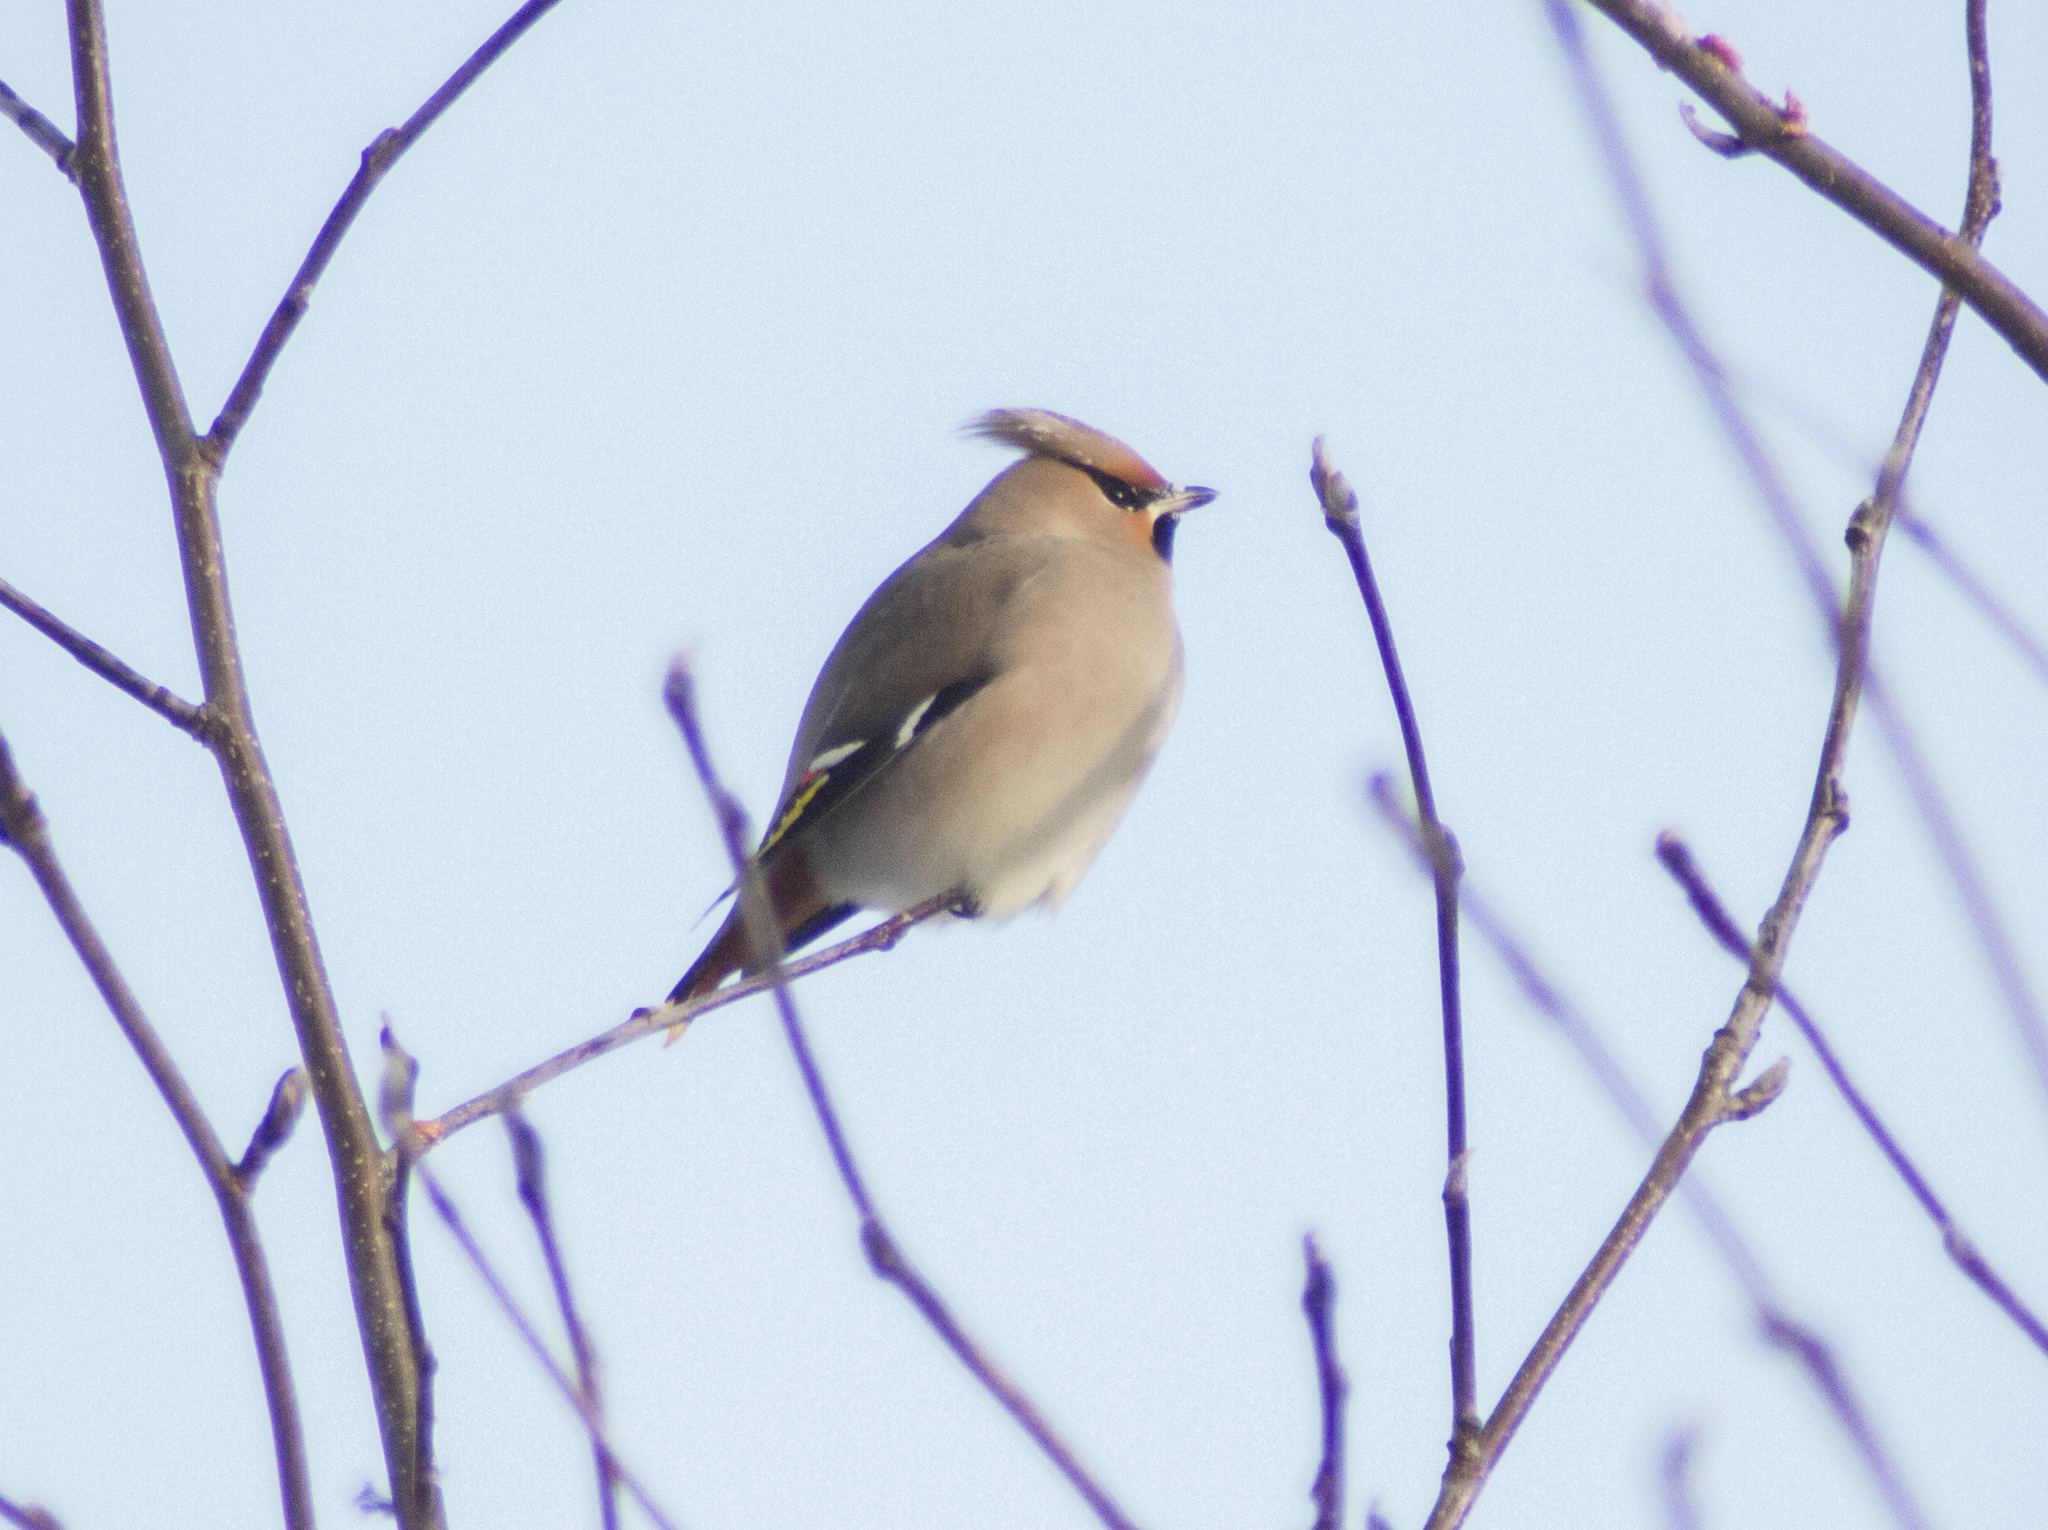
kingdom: Animalia
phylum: Chordata
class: Aves
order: Passeriformes
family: Bombycillidae
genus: Bombycilla
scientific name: Bombycilla garrulus
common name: Bohemian waxwing
